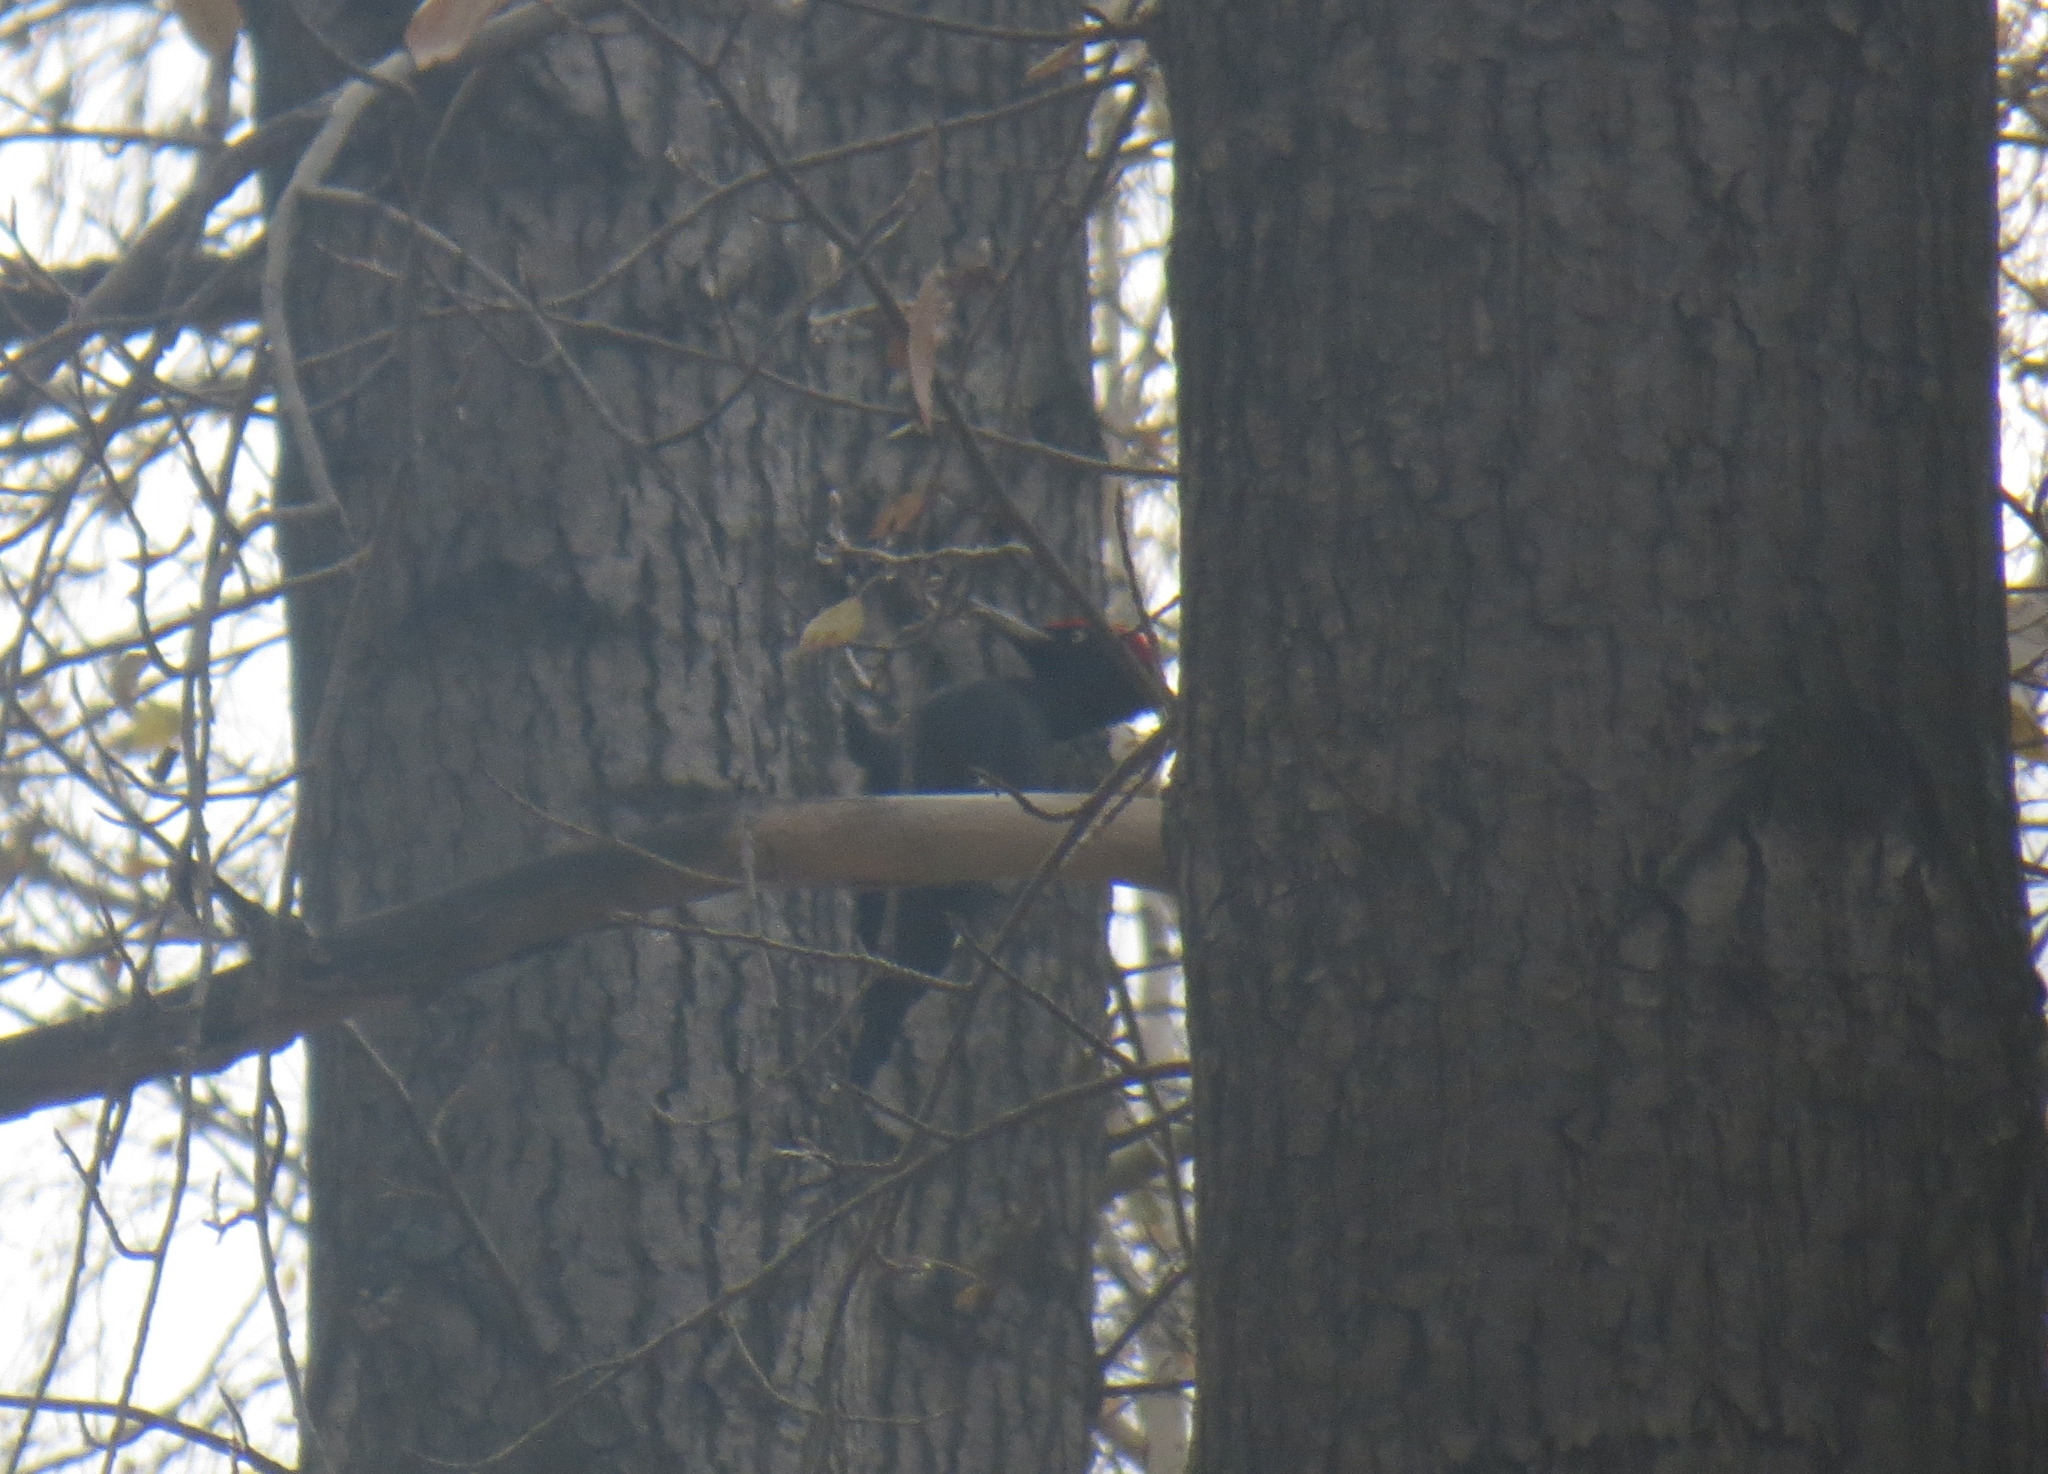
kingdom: Animalia
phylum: Chordata
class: Aves
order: Piciformes
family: Picidae
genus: Dryocopus
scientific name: Dryocopus martius
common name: Black woodpecker
